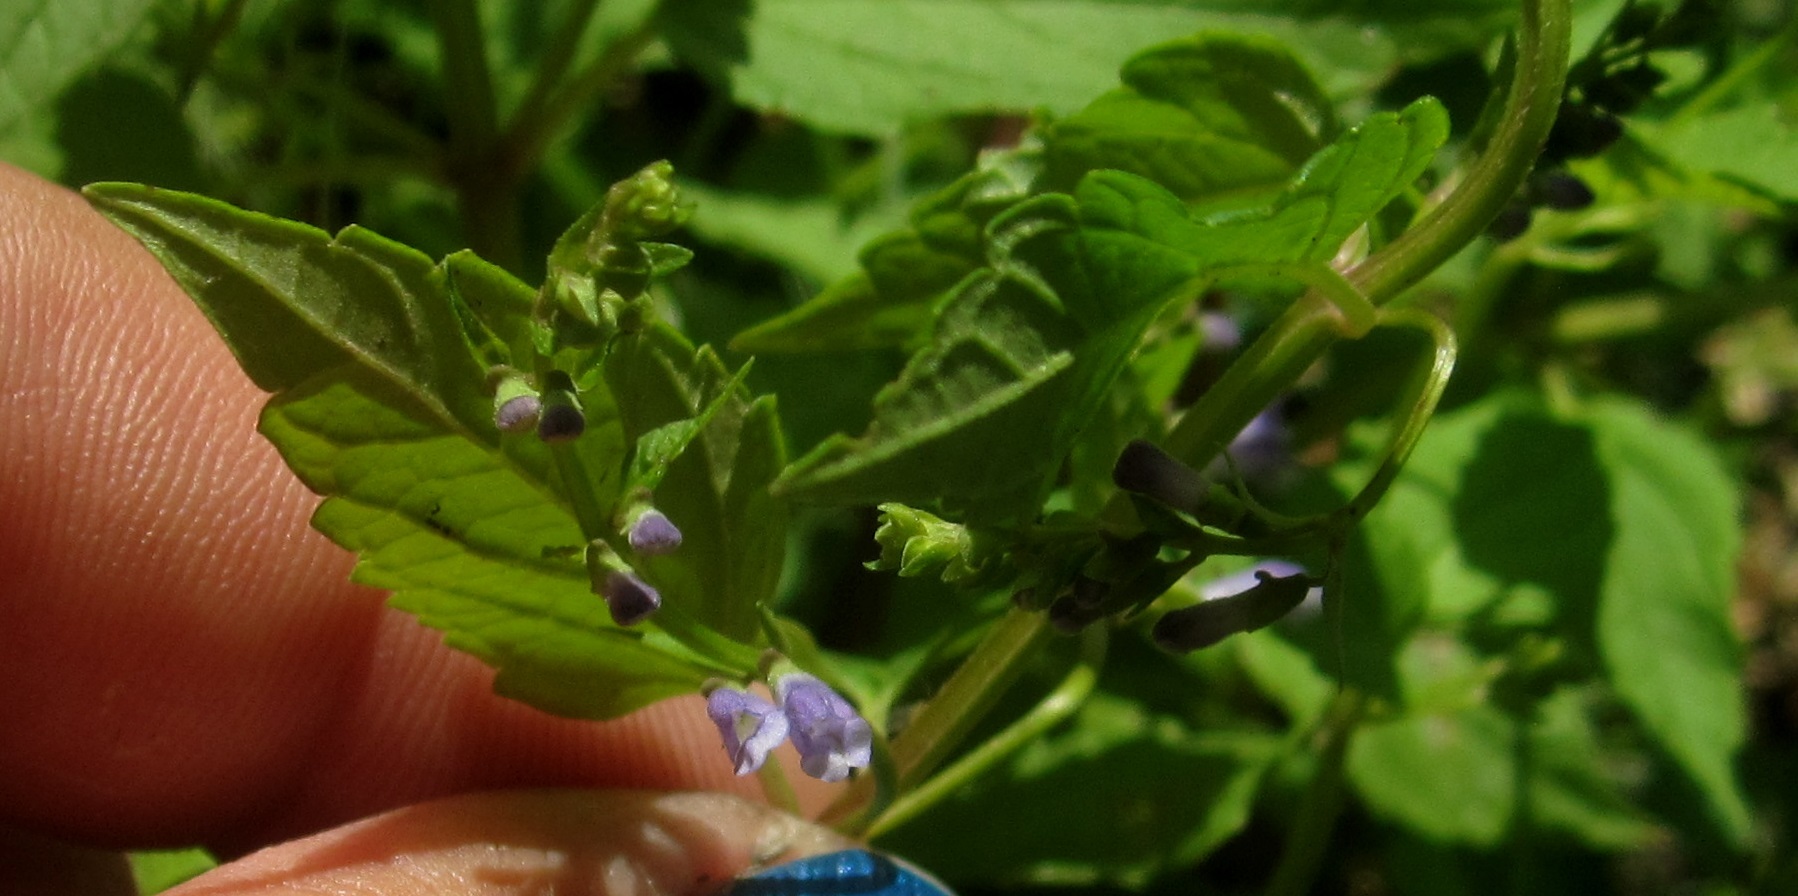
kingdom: Plantae
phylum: Tracheophyta
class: Magnoliopsida
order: Lamiales
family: Lamiaceae
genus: Scutellaria
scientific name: Scutellaria lateriflora
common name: Blue skullcap
